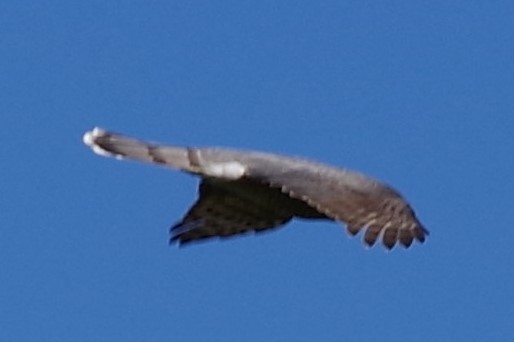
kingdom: Animalia
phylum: Chordata
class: Aves
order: Accipitriformes
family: Accipitridae
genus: Accipiter
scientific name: Accipiter cooperii
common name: Cooper's hawk
